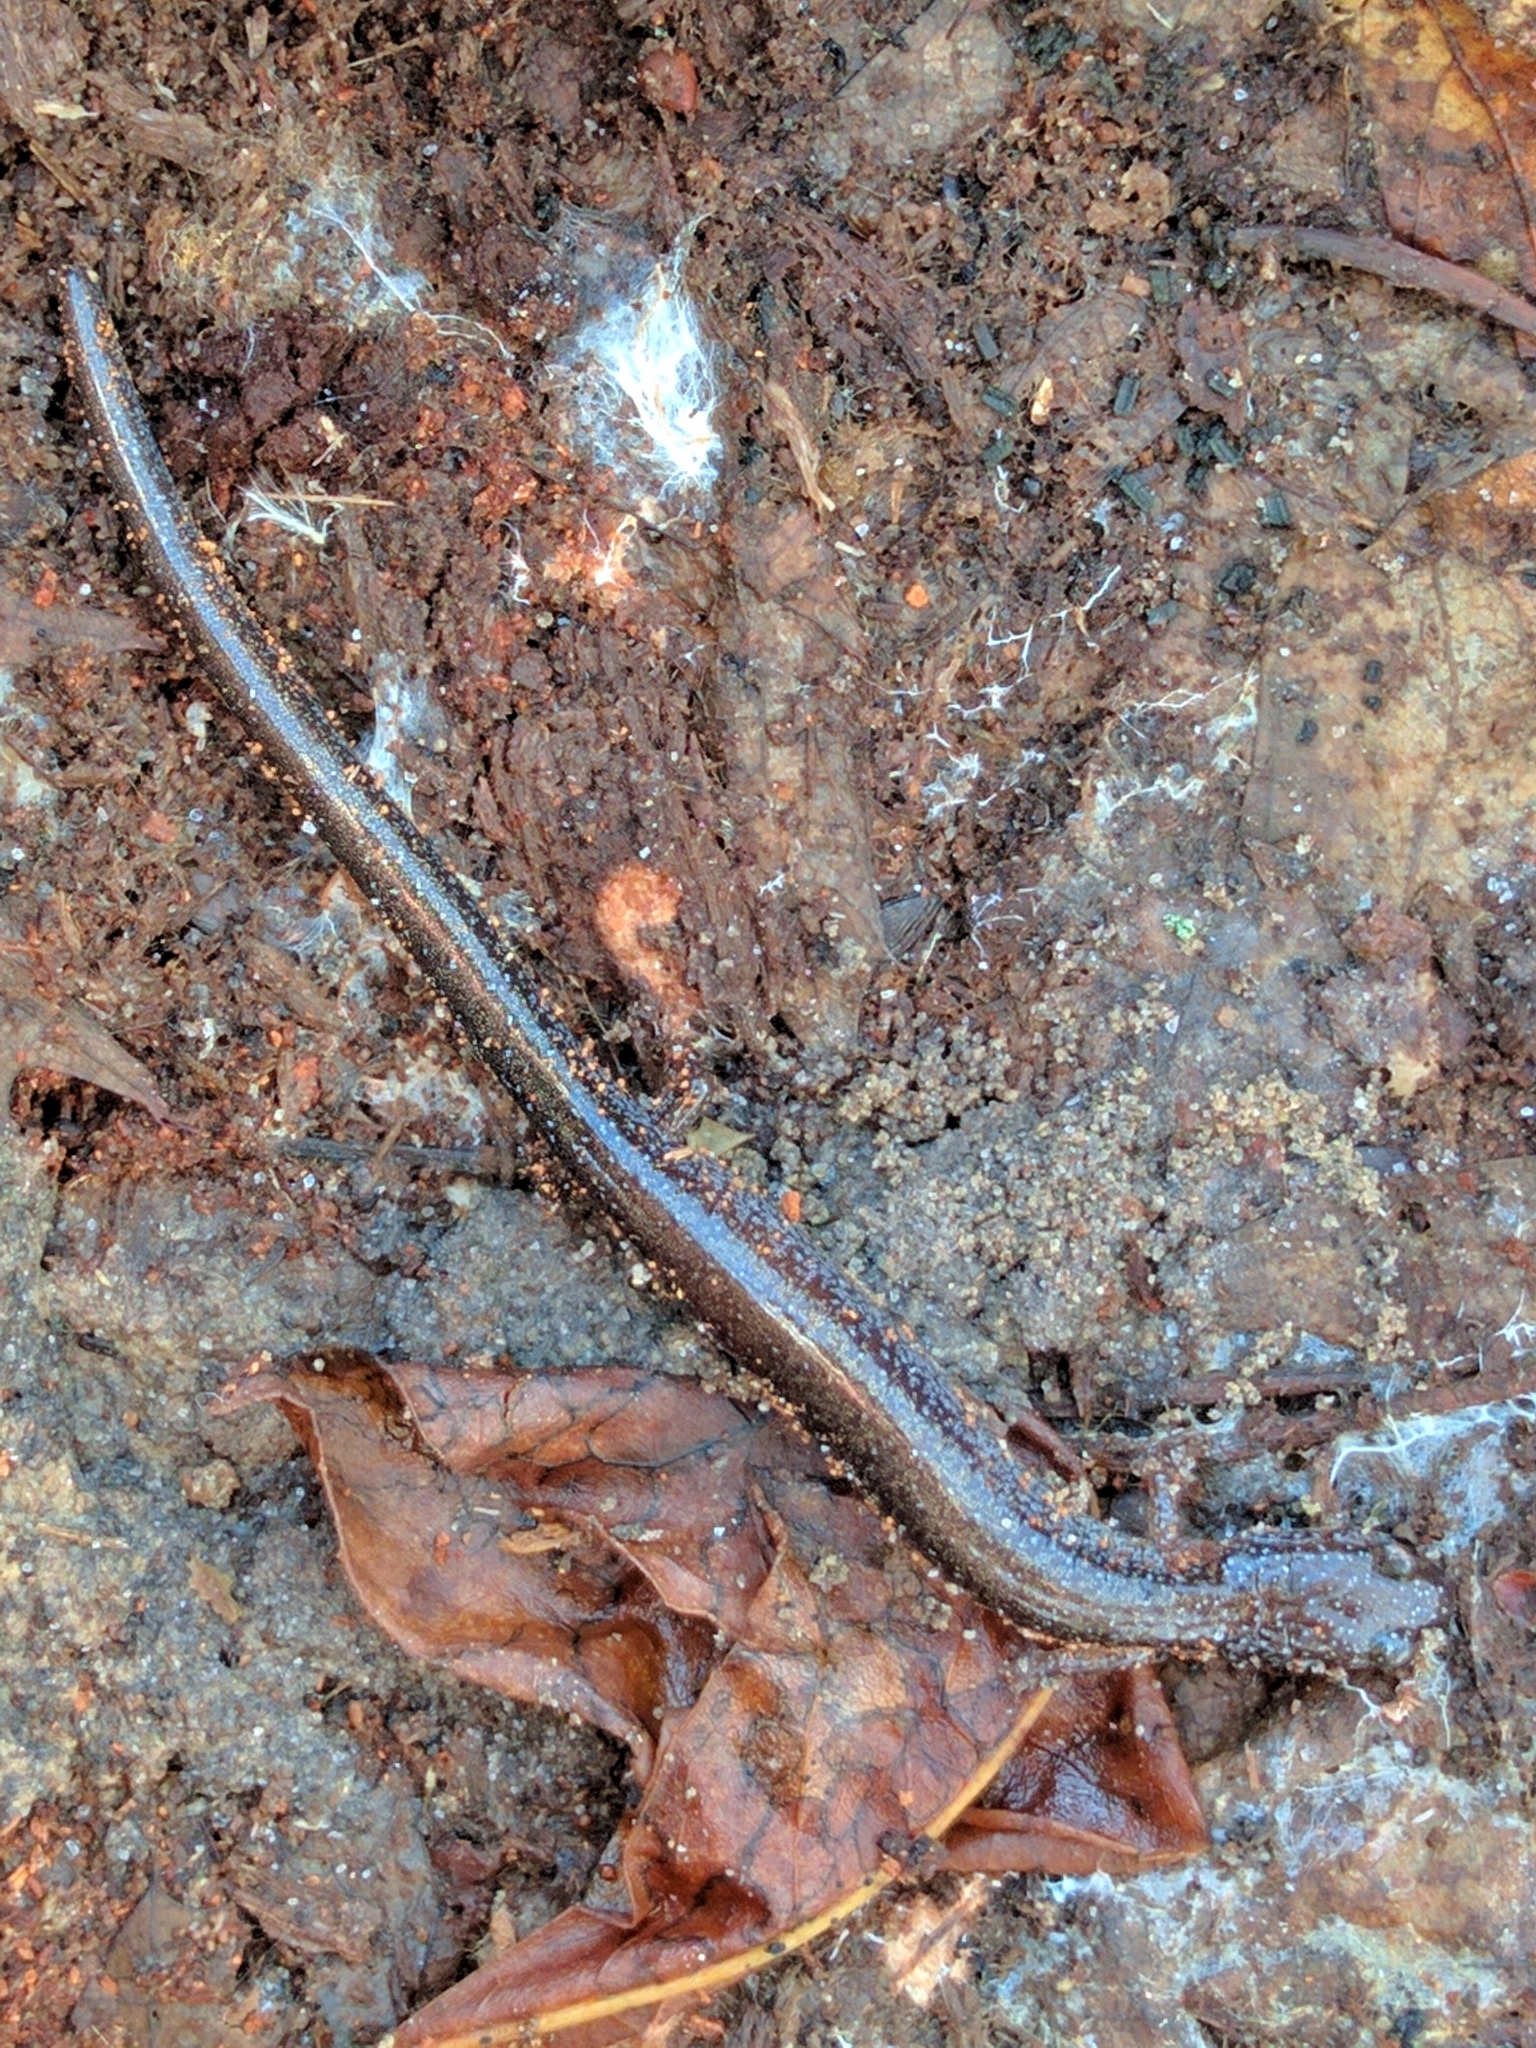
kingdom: Animalia
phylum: Chordata
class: Amphibia
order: Caudata
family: Plethodontidae
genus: Plethodon
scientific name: Plethodon cinereus
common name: Redback salamander
